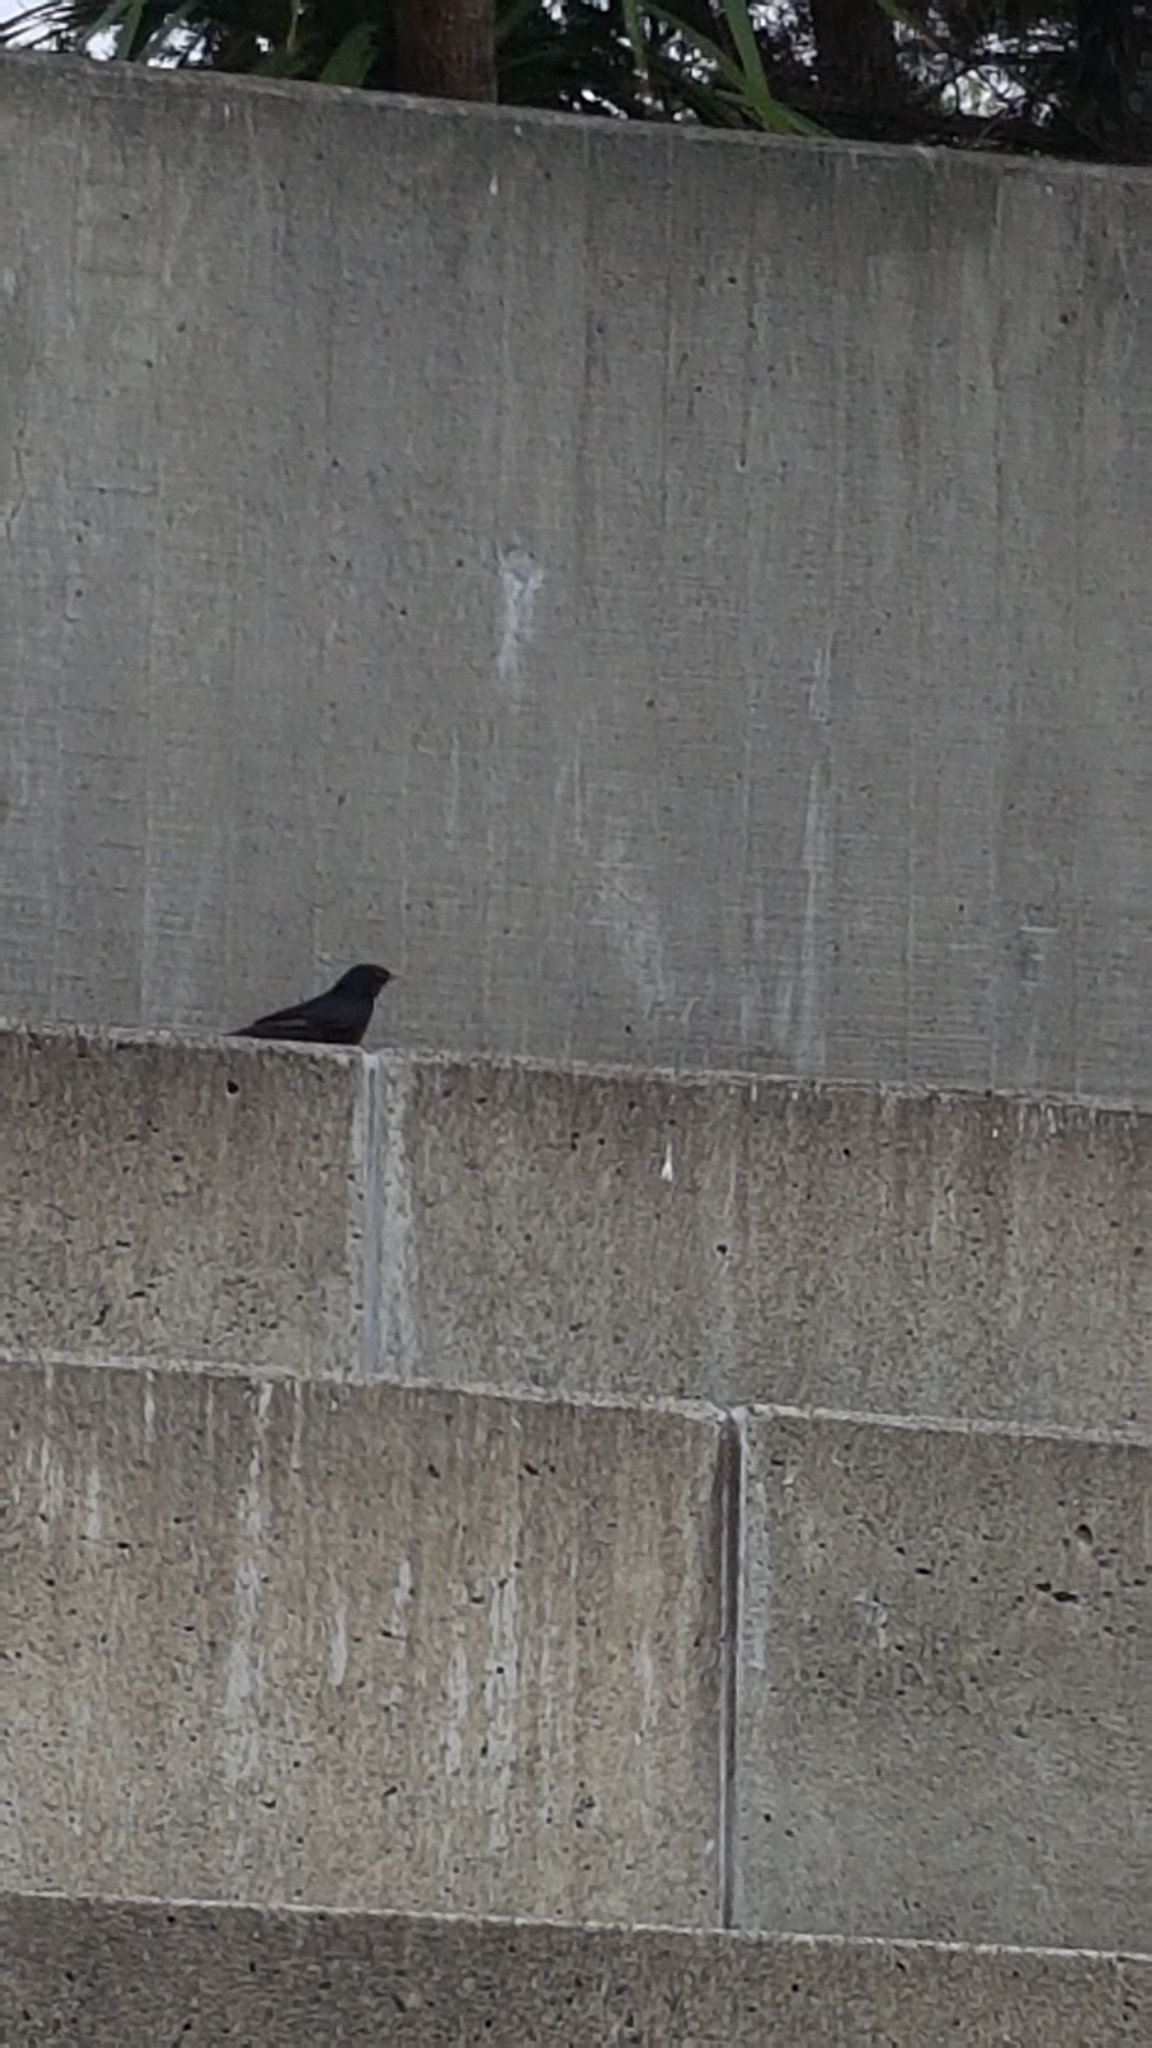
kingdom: Animalia
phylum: Chordata
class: Aves
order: Passeriformes
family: Sturnidae
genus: Sturnus
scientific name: Sturnus vulgaris
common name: Common starling
